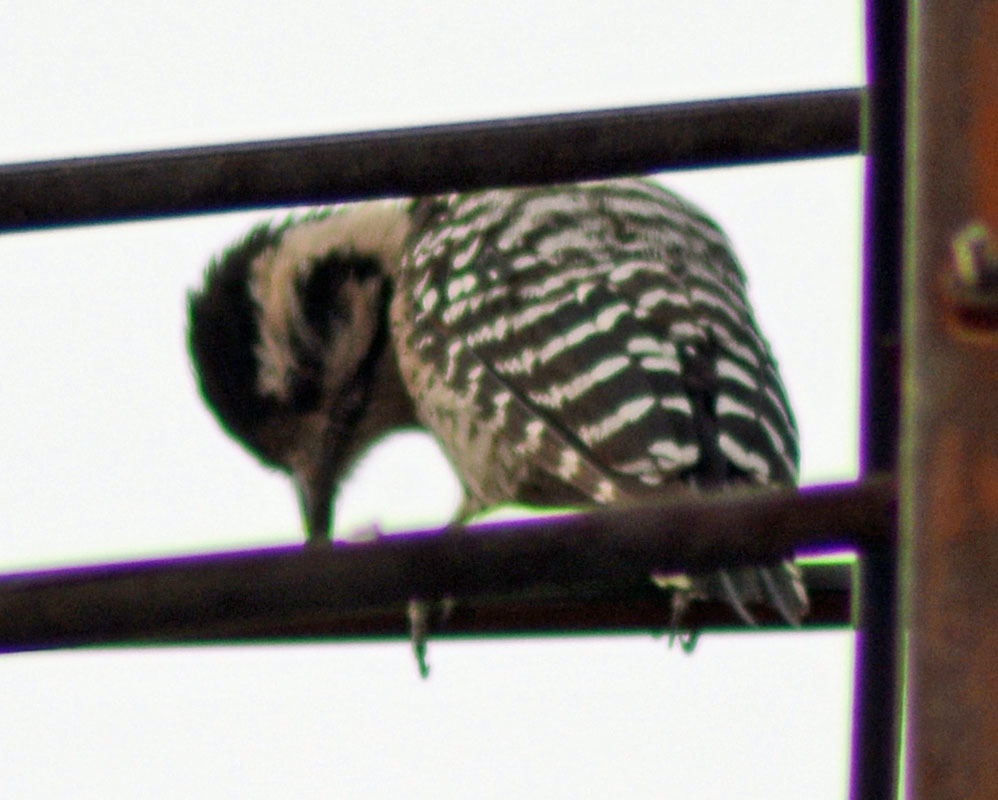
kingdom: Animalia
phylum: Chordata
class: Aves
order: Piciformes
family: Picidae
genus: Dryobates
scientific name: Dryobates scalaris
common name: Ladder-backed woodpecker
